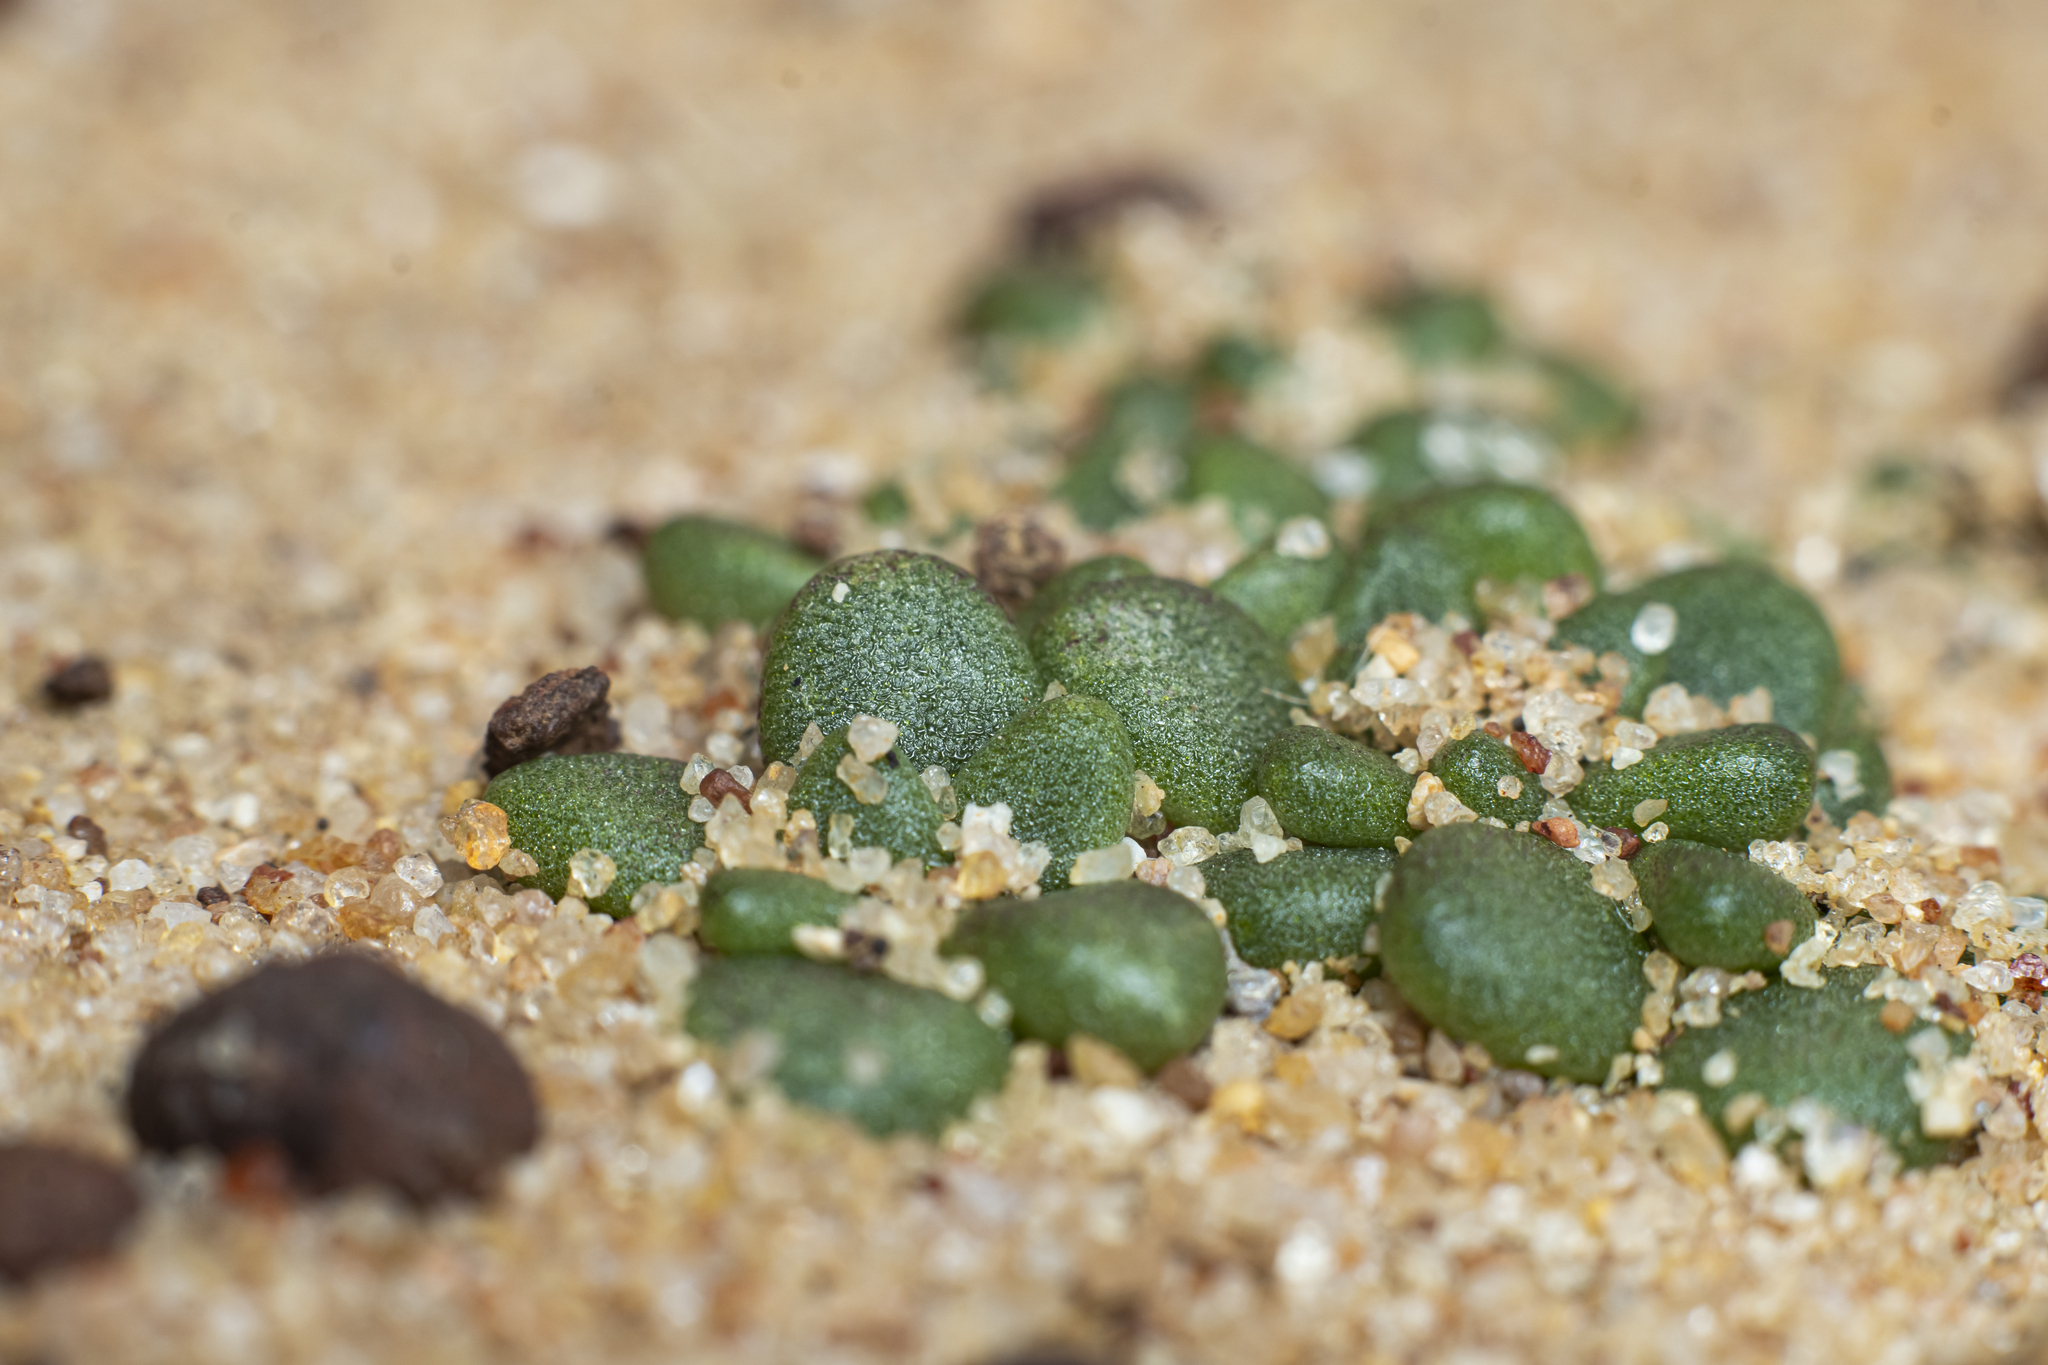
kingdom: Plantae
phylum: Tracheophyta
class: Magnoliopsida
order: Saxifragales
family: Crassulaceae
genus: Dudleya
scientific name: Dudleya blochmaniae
